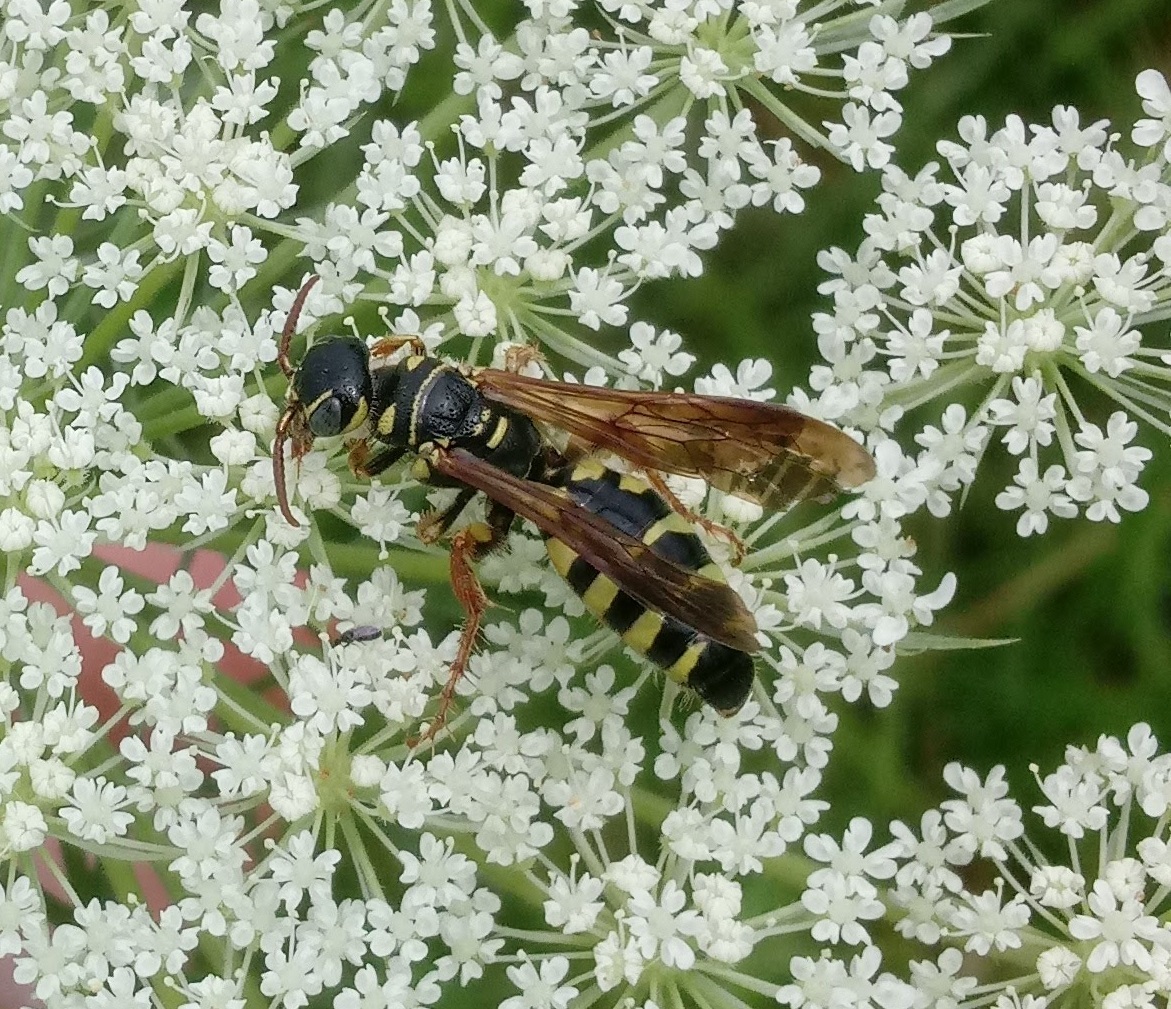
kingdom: Animalia
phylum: Arthropoda
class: Insecta
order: Hymenoptera
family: Tiphiidae
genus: Myzinum
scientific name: Myzinum quinquecinctum
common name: Five-banded thynnid wasp
